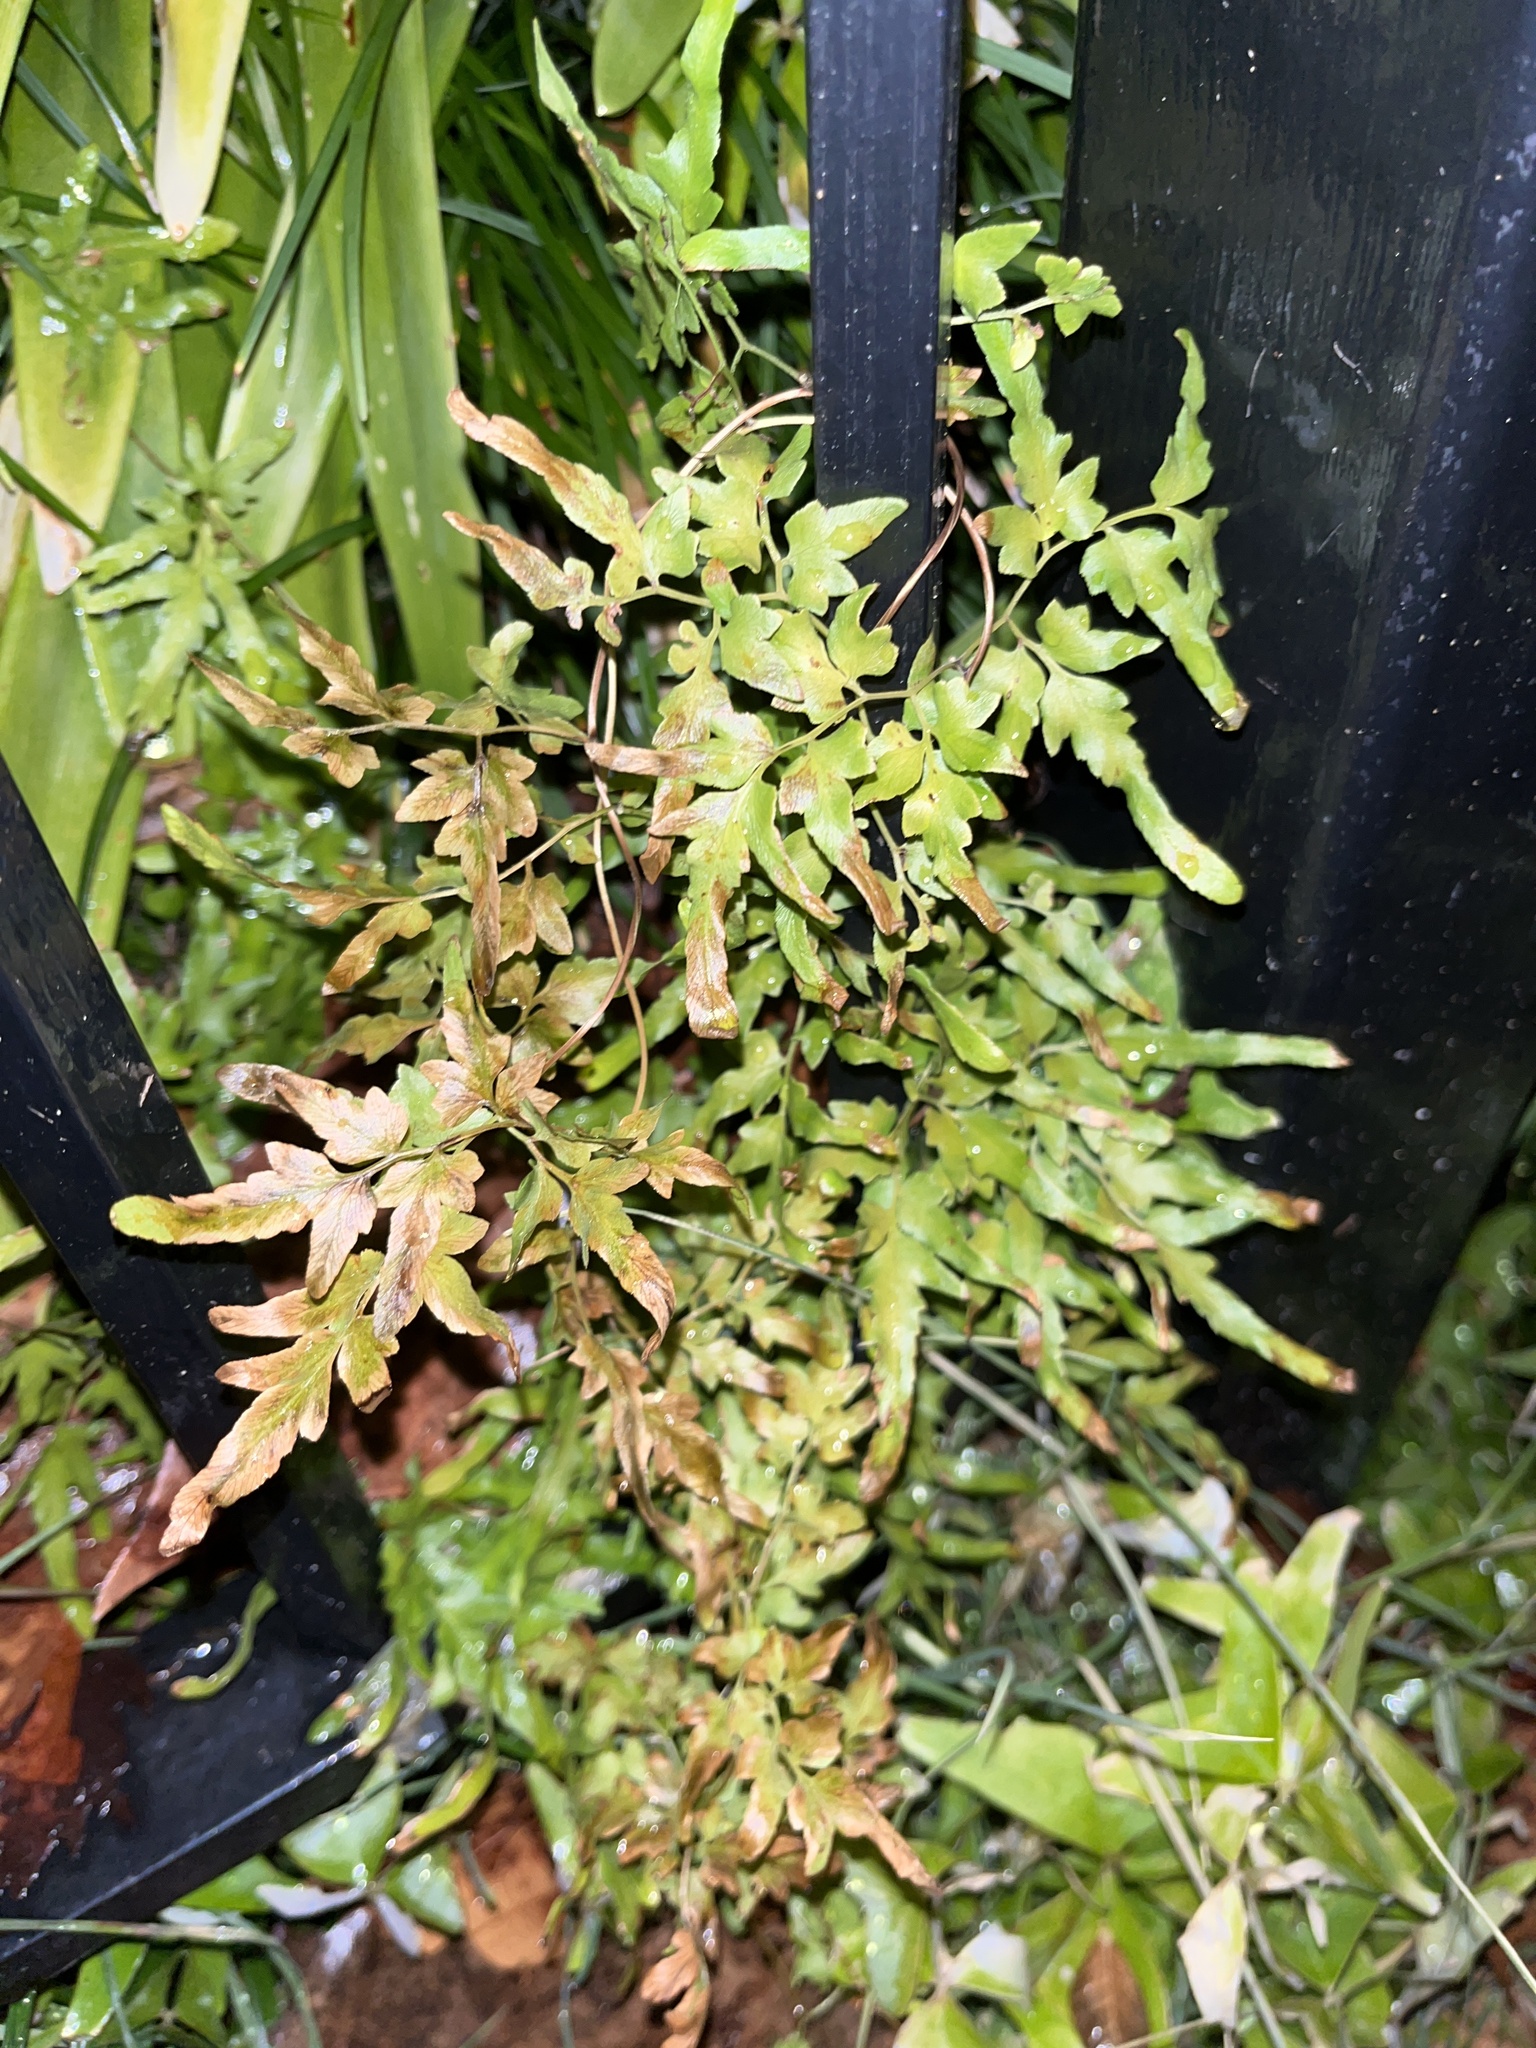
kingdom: Plantae
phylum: Tracheophyta
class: Polypodiopsida
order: Schizaeales
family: Lygodiaceae
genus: Lygodium
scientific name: Lygodium japonicum
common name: Japanese climbing fern
